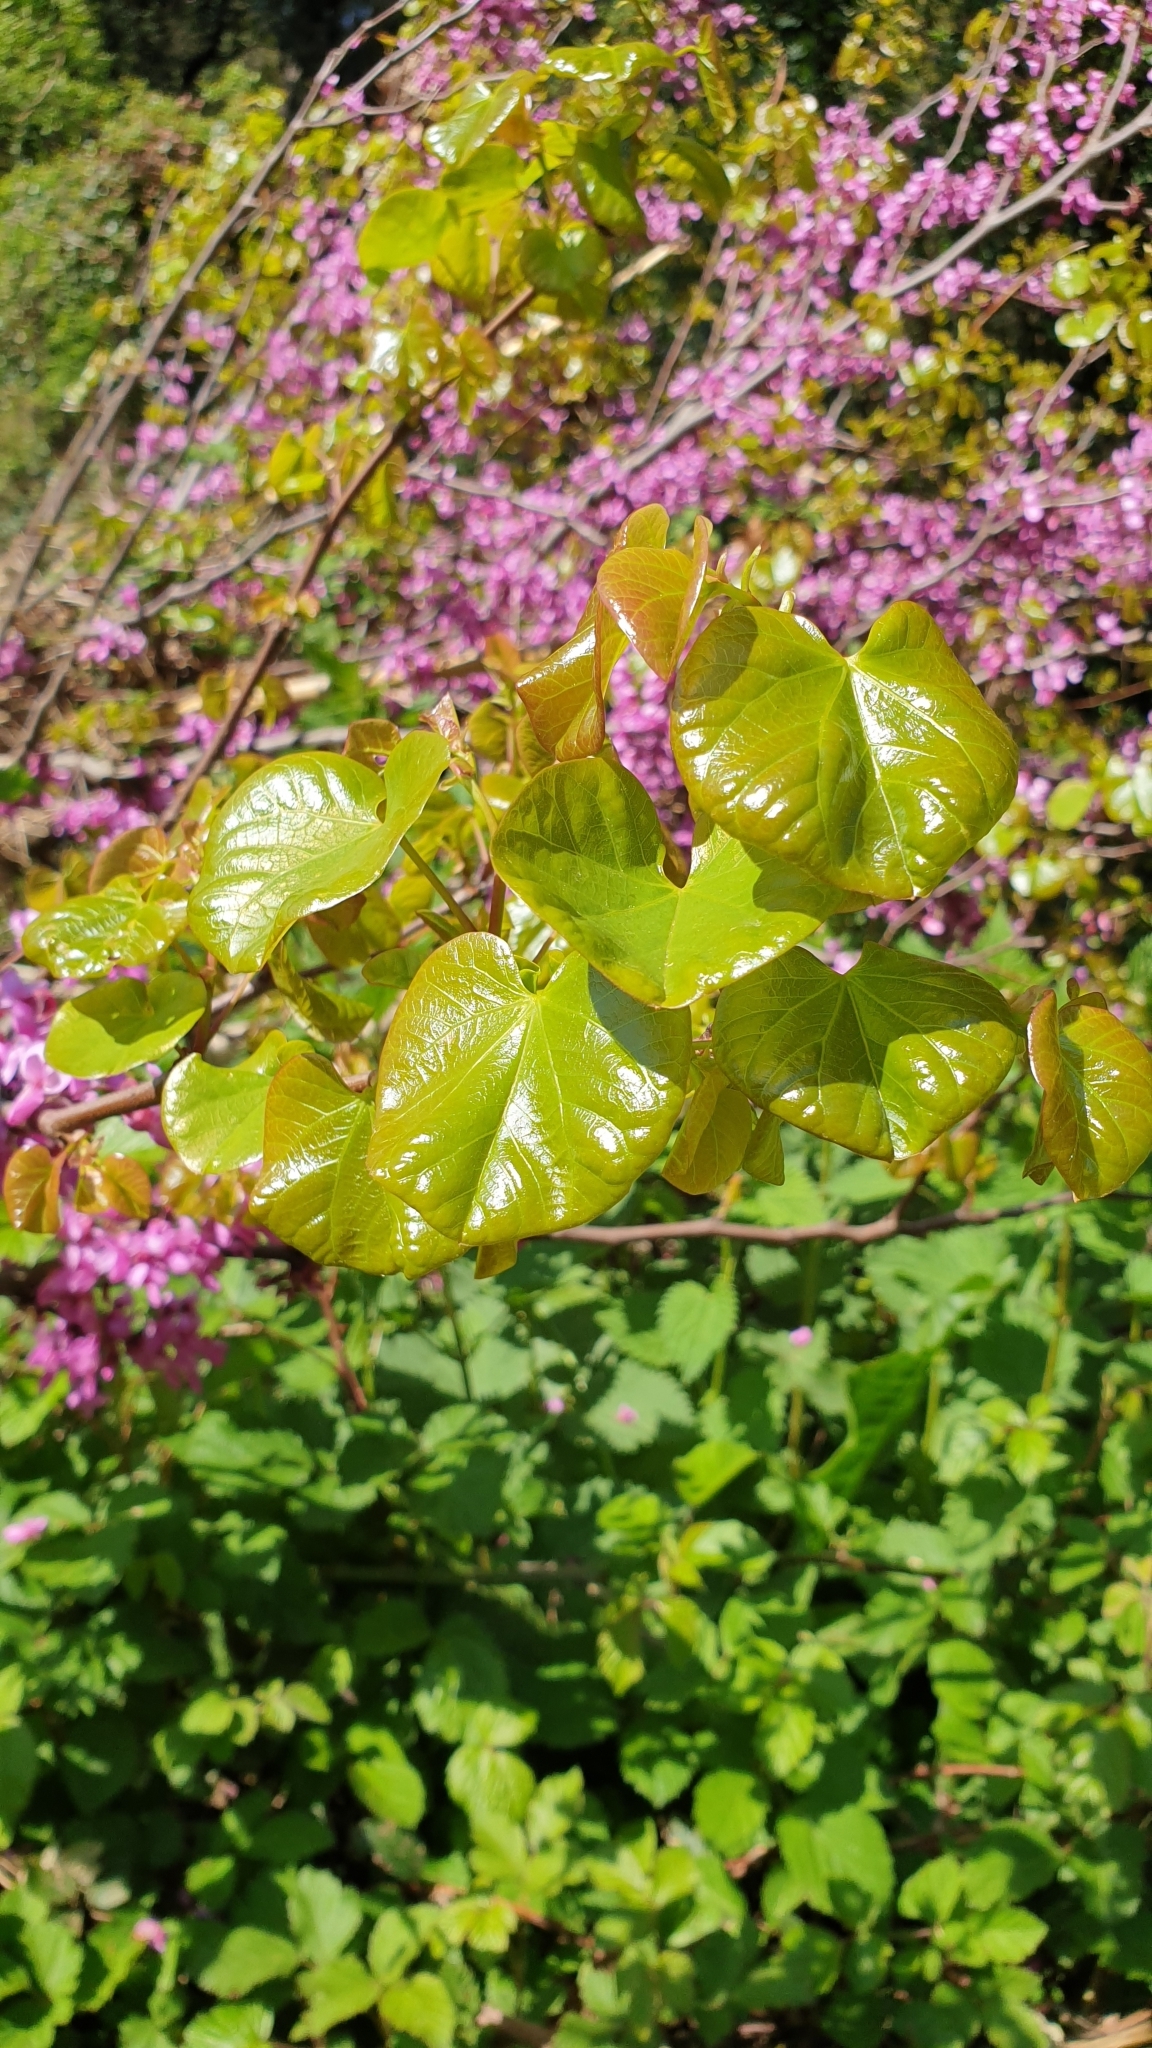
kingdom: Plantae
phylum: Tracheophyta
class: Magnoliopsida
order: Fabales
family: Fabaceae
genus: Cercis
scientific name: Cercis siliquastrum
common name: Judas tree
